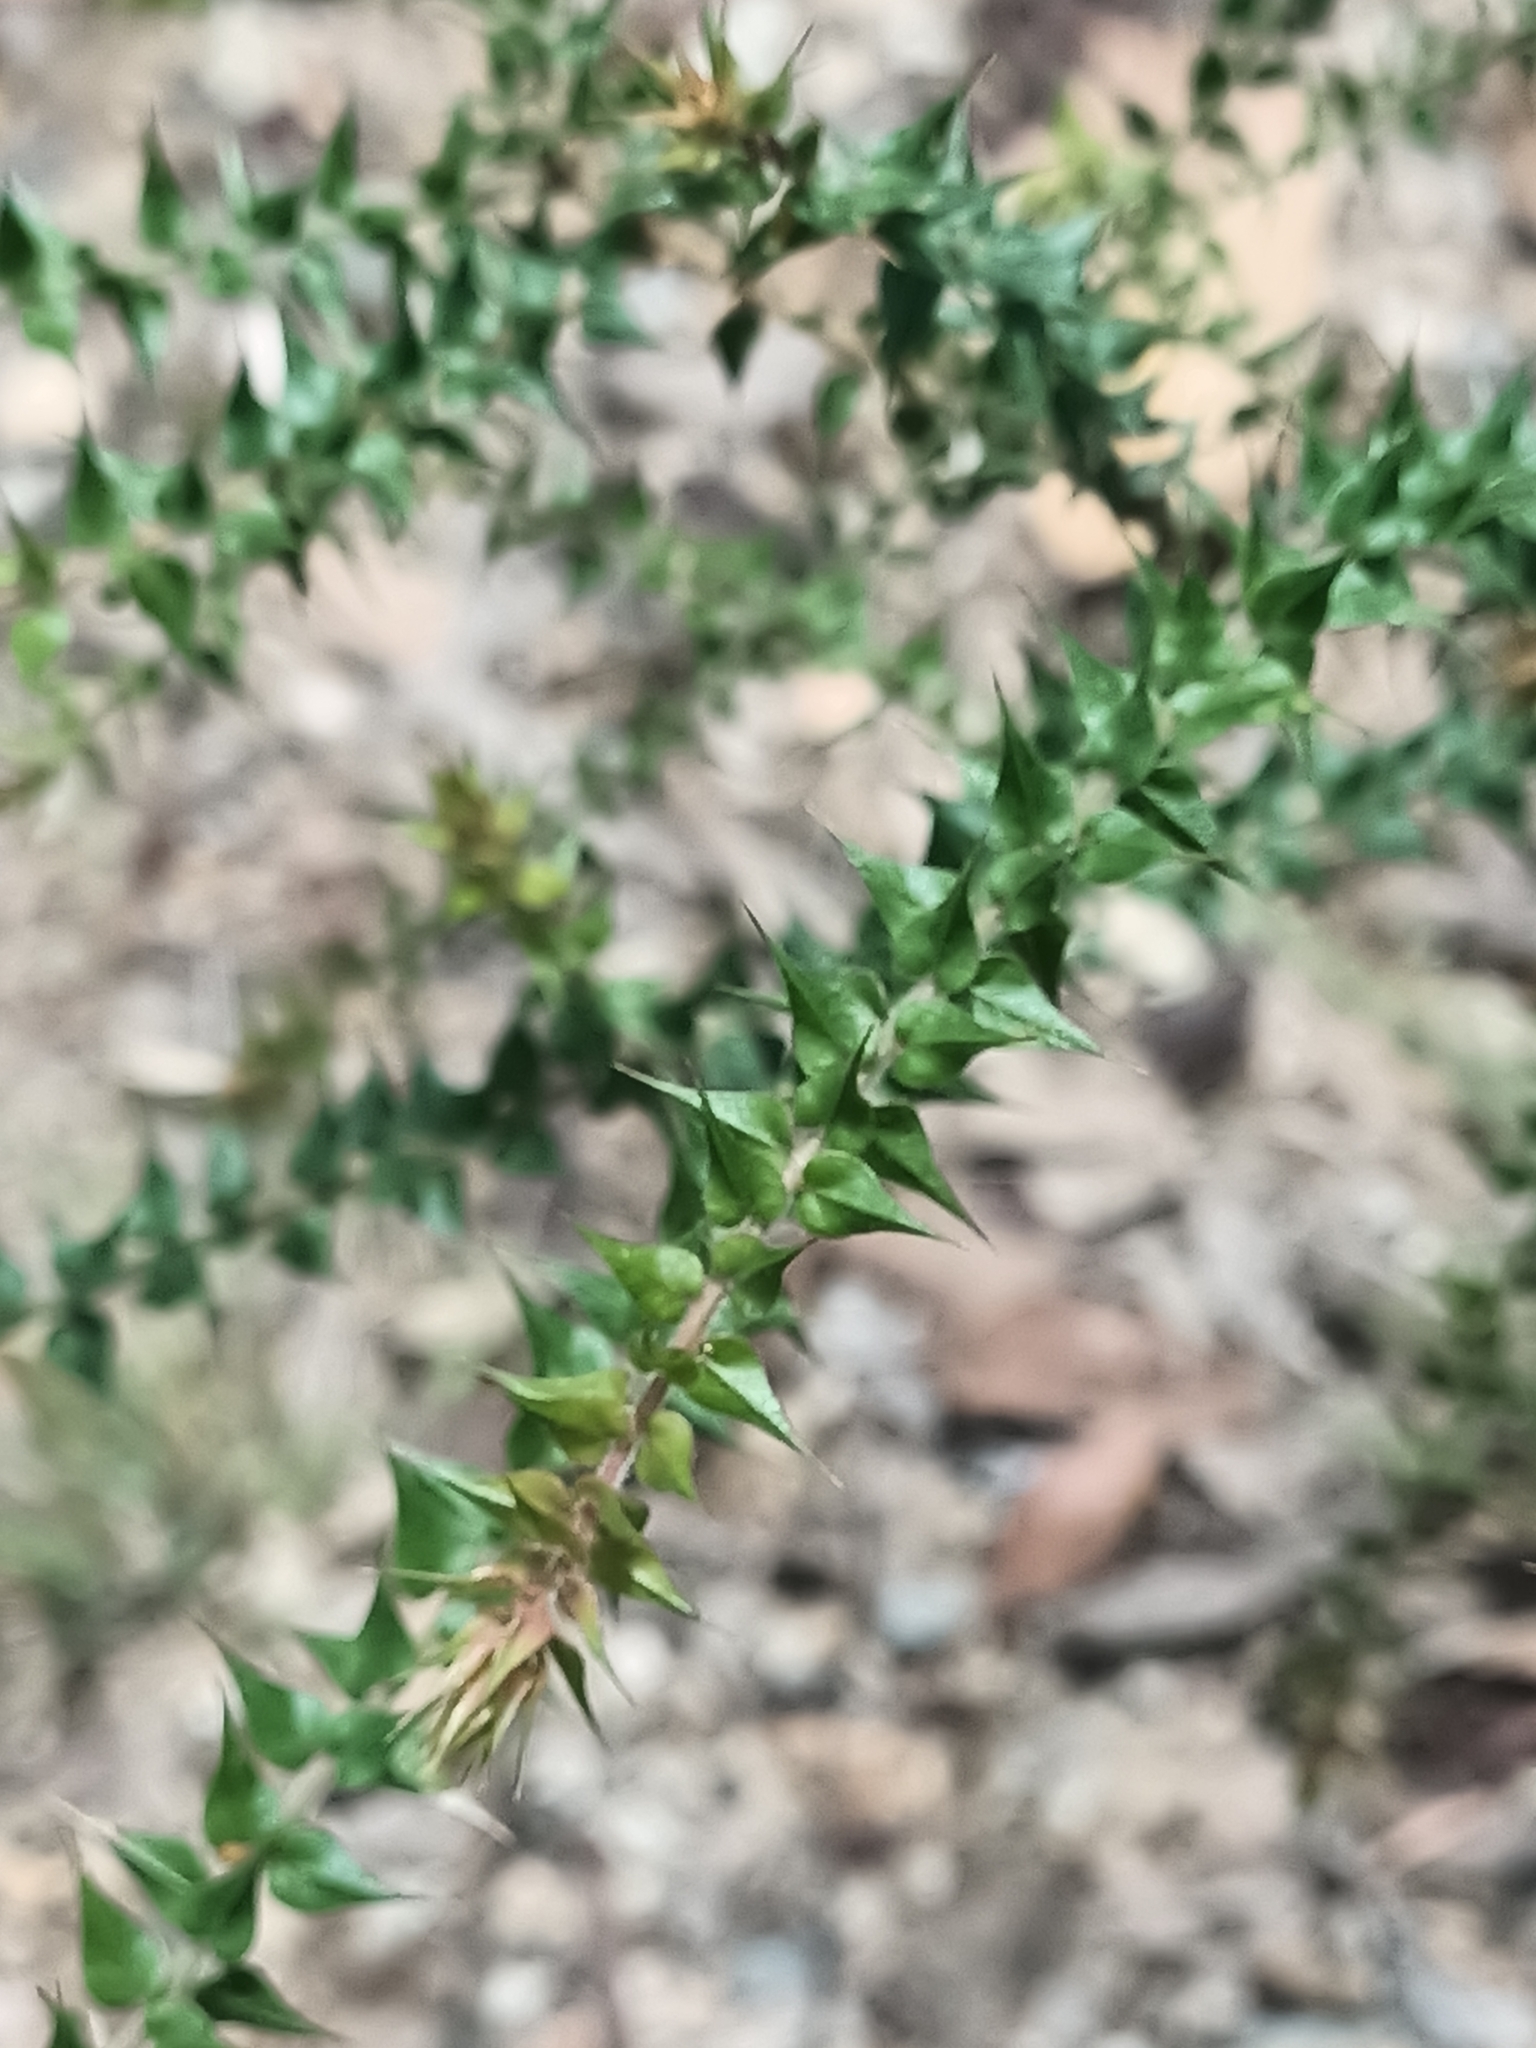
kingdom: Plantae
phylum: Tracheophyta
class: Magnoliopsida
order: Fabales
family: Fabaceae
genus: Daviesia
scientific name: Daviesia villifera
